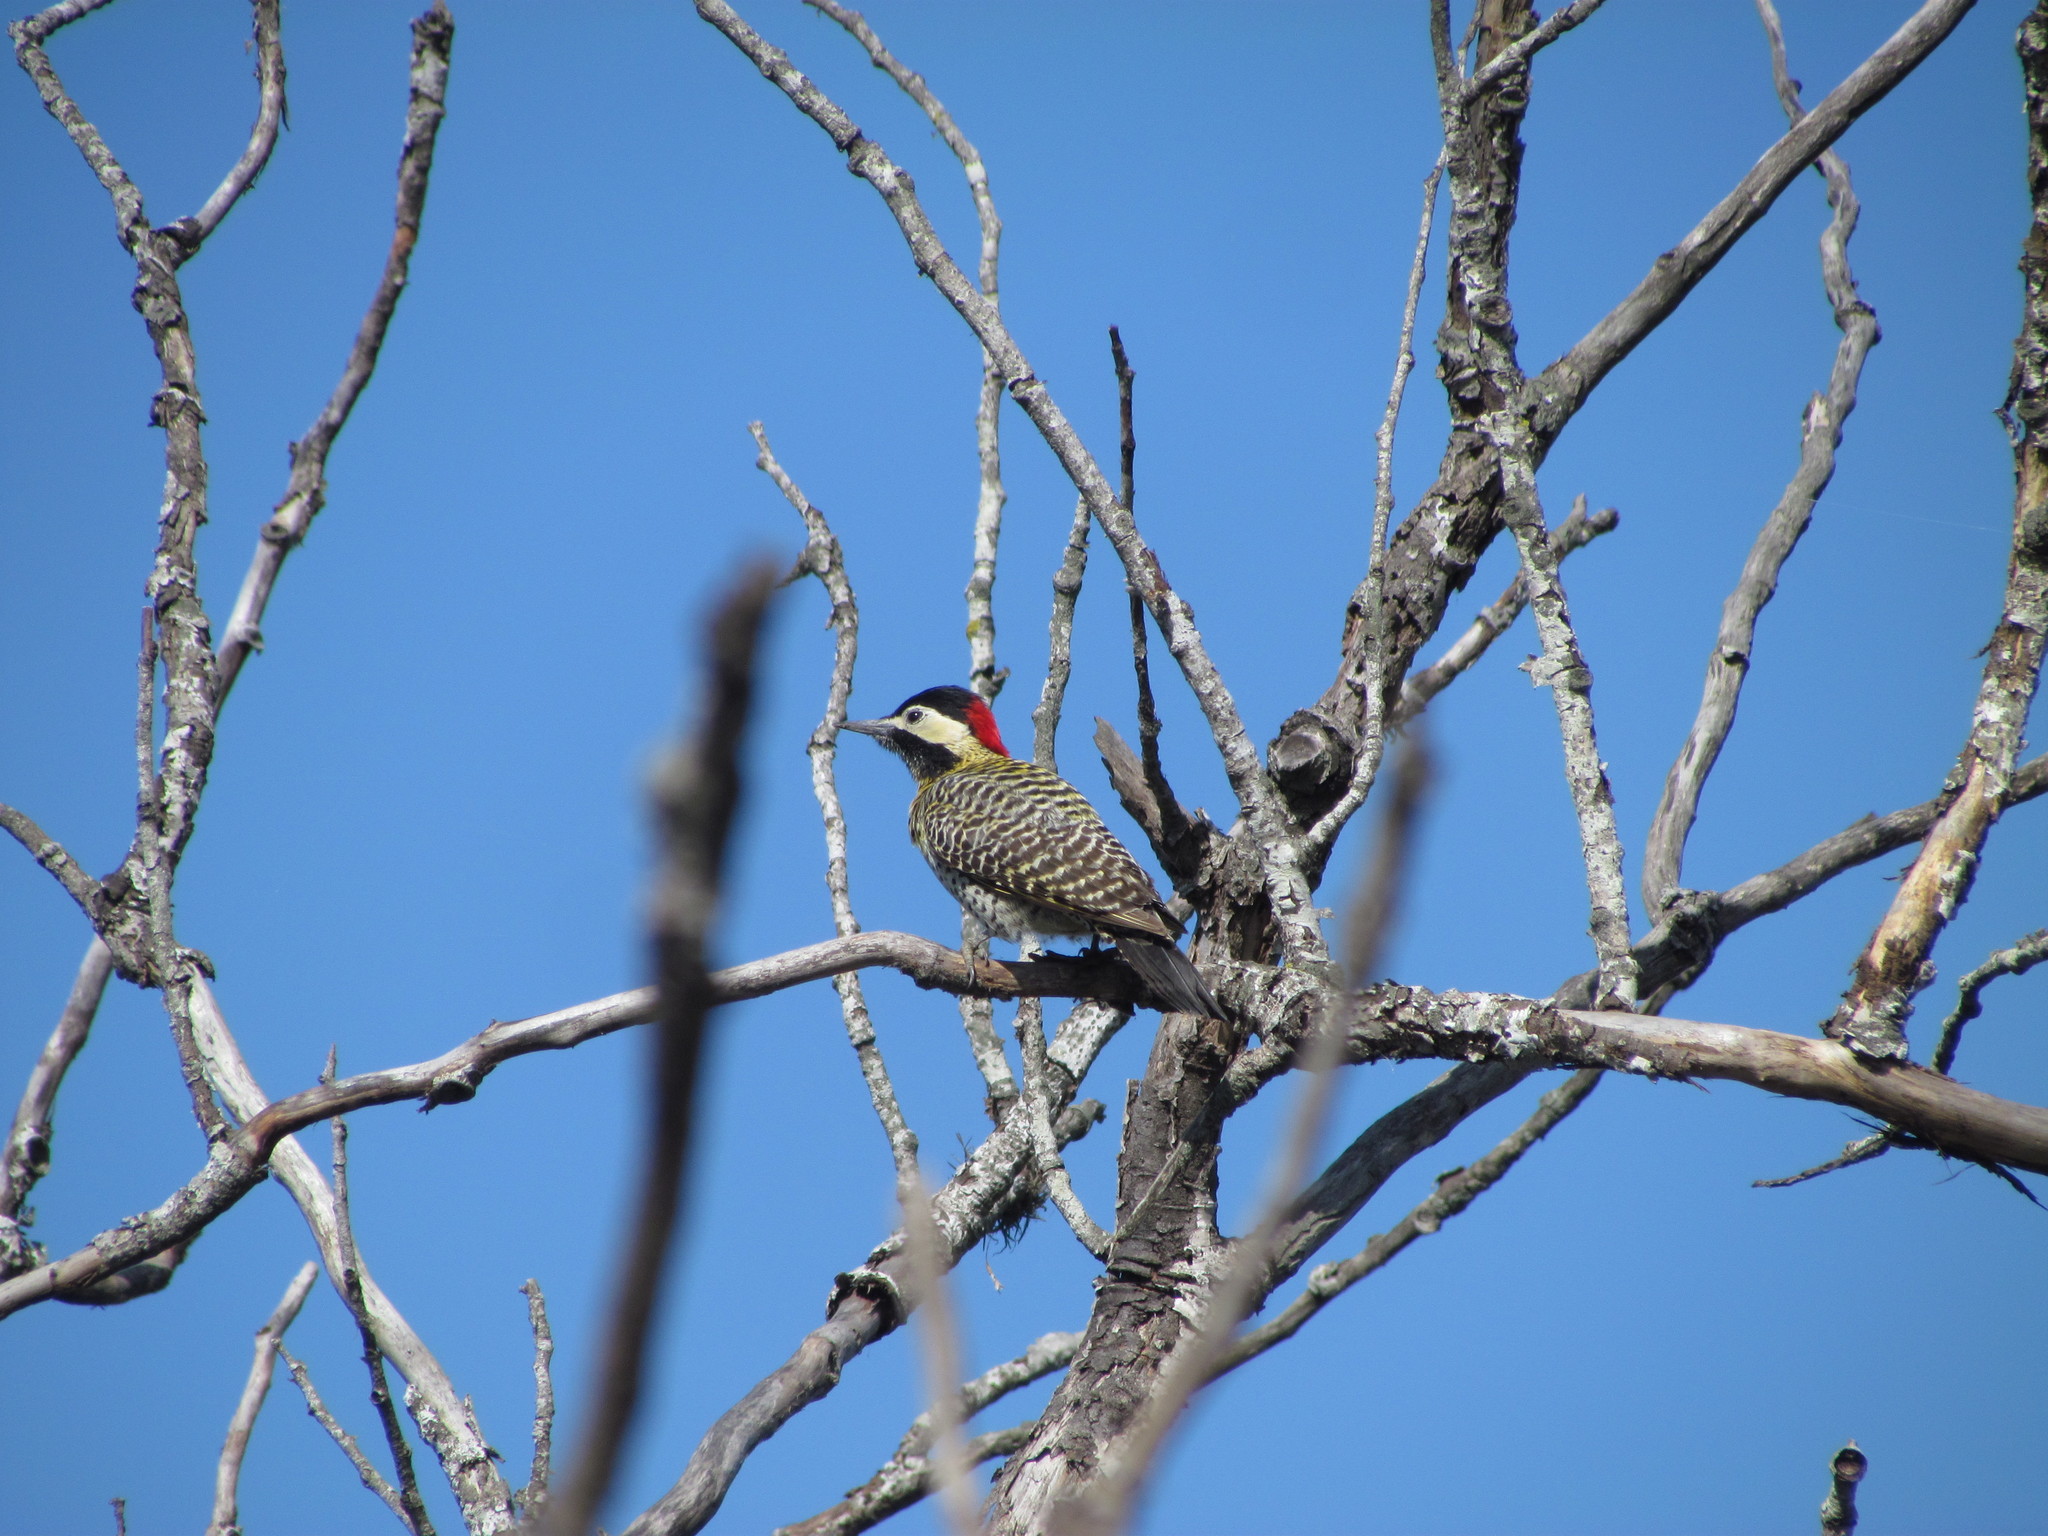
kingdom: Animalia
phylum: Chordata
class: Aves
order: Piciformes
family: Picidae
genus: Colaptes
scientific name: Colaptes melanochloros
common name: Green-barred woodpecker
